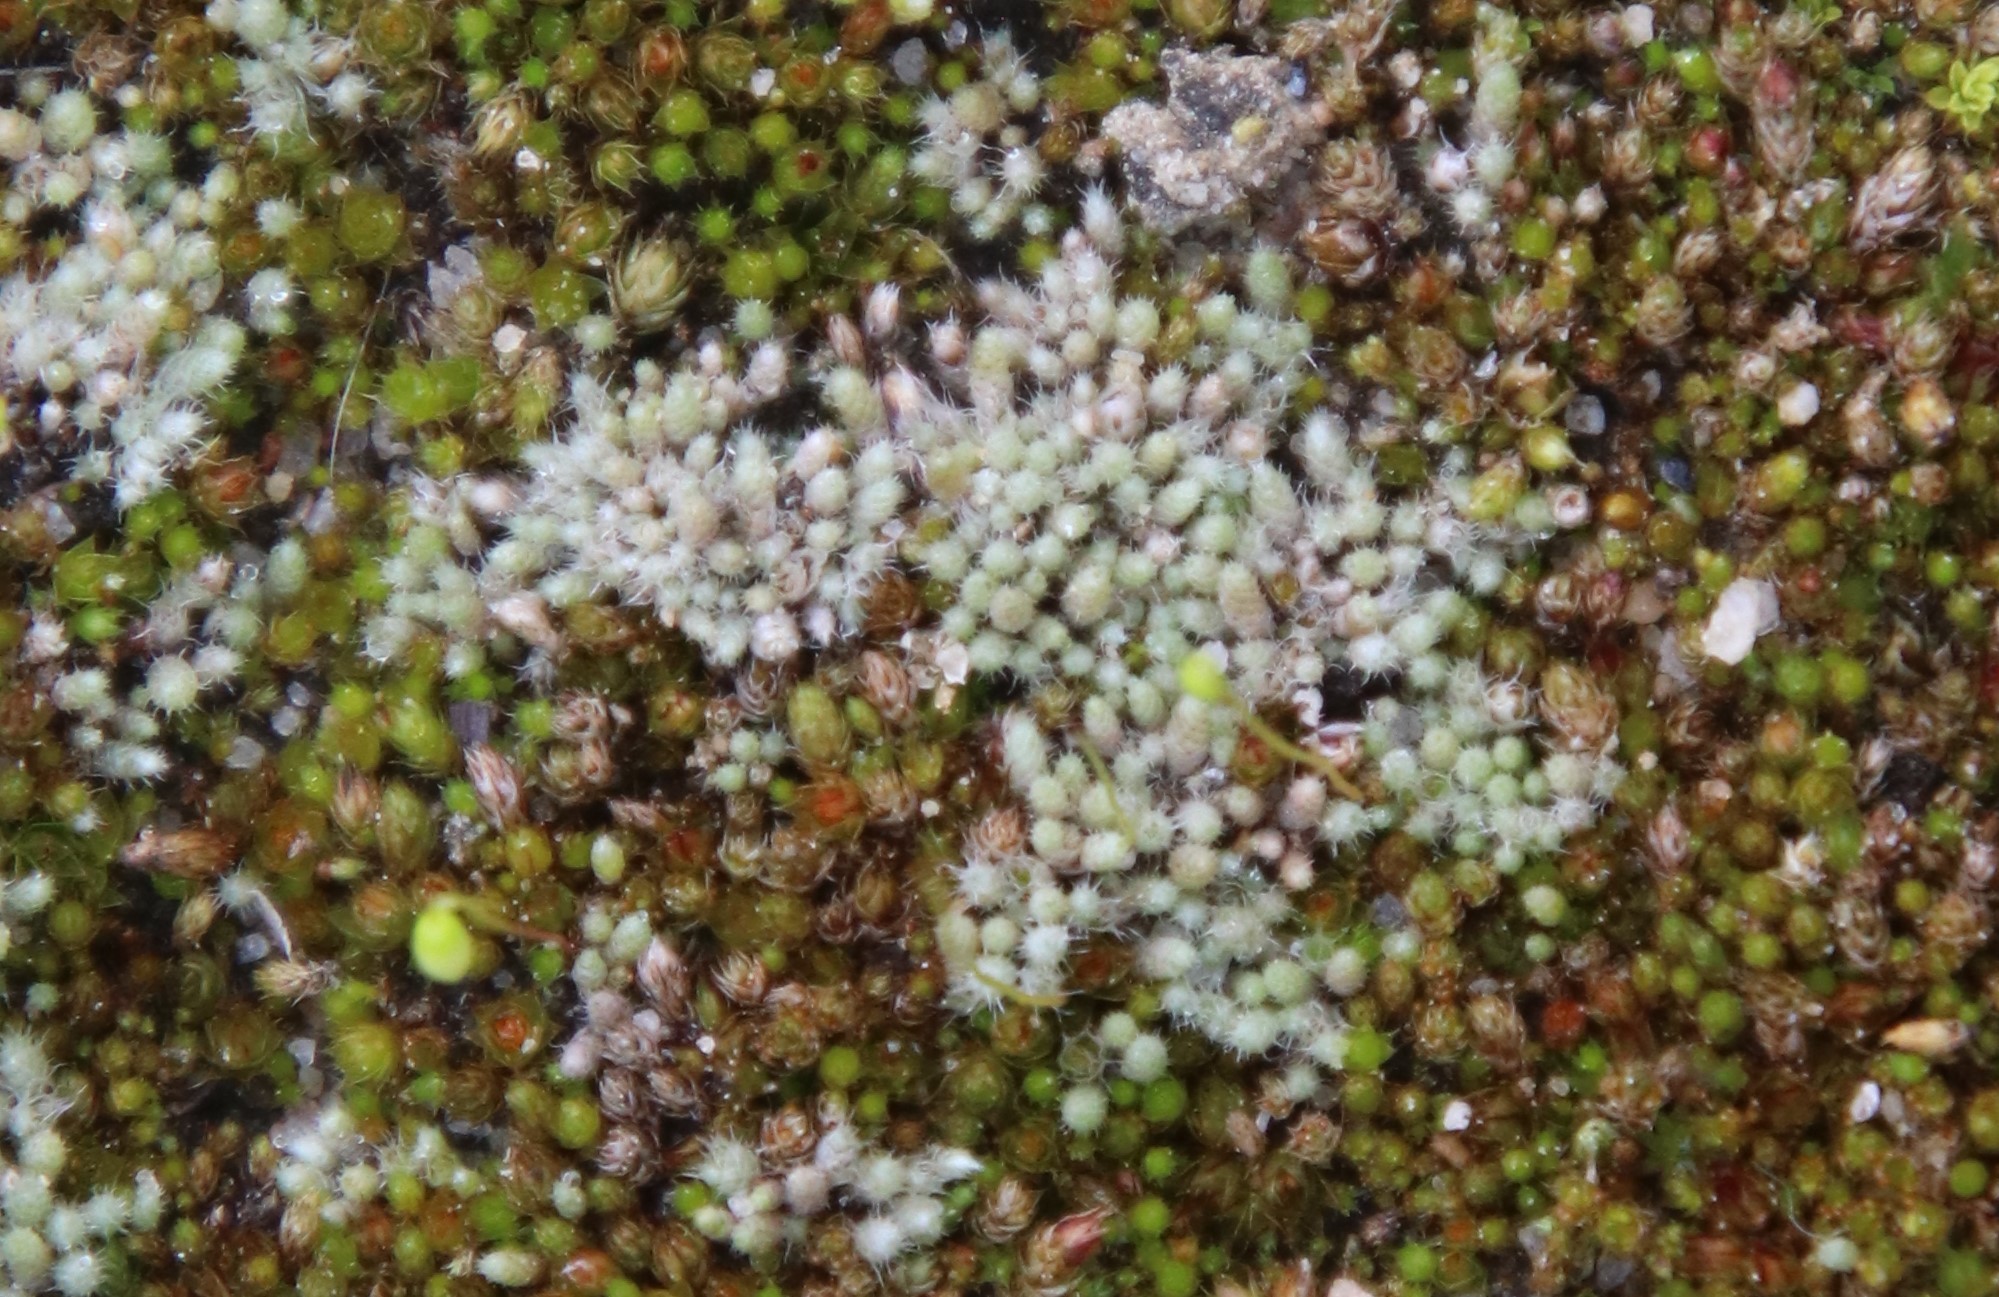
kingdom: Plantae
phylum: Bryophyta
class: Bryopsida
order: Bryales
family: Bryaceae
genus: Bryum
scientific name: Bryum argenteum
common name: Silver-moss
